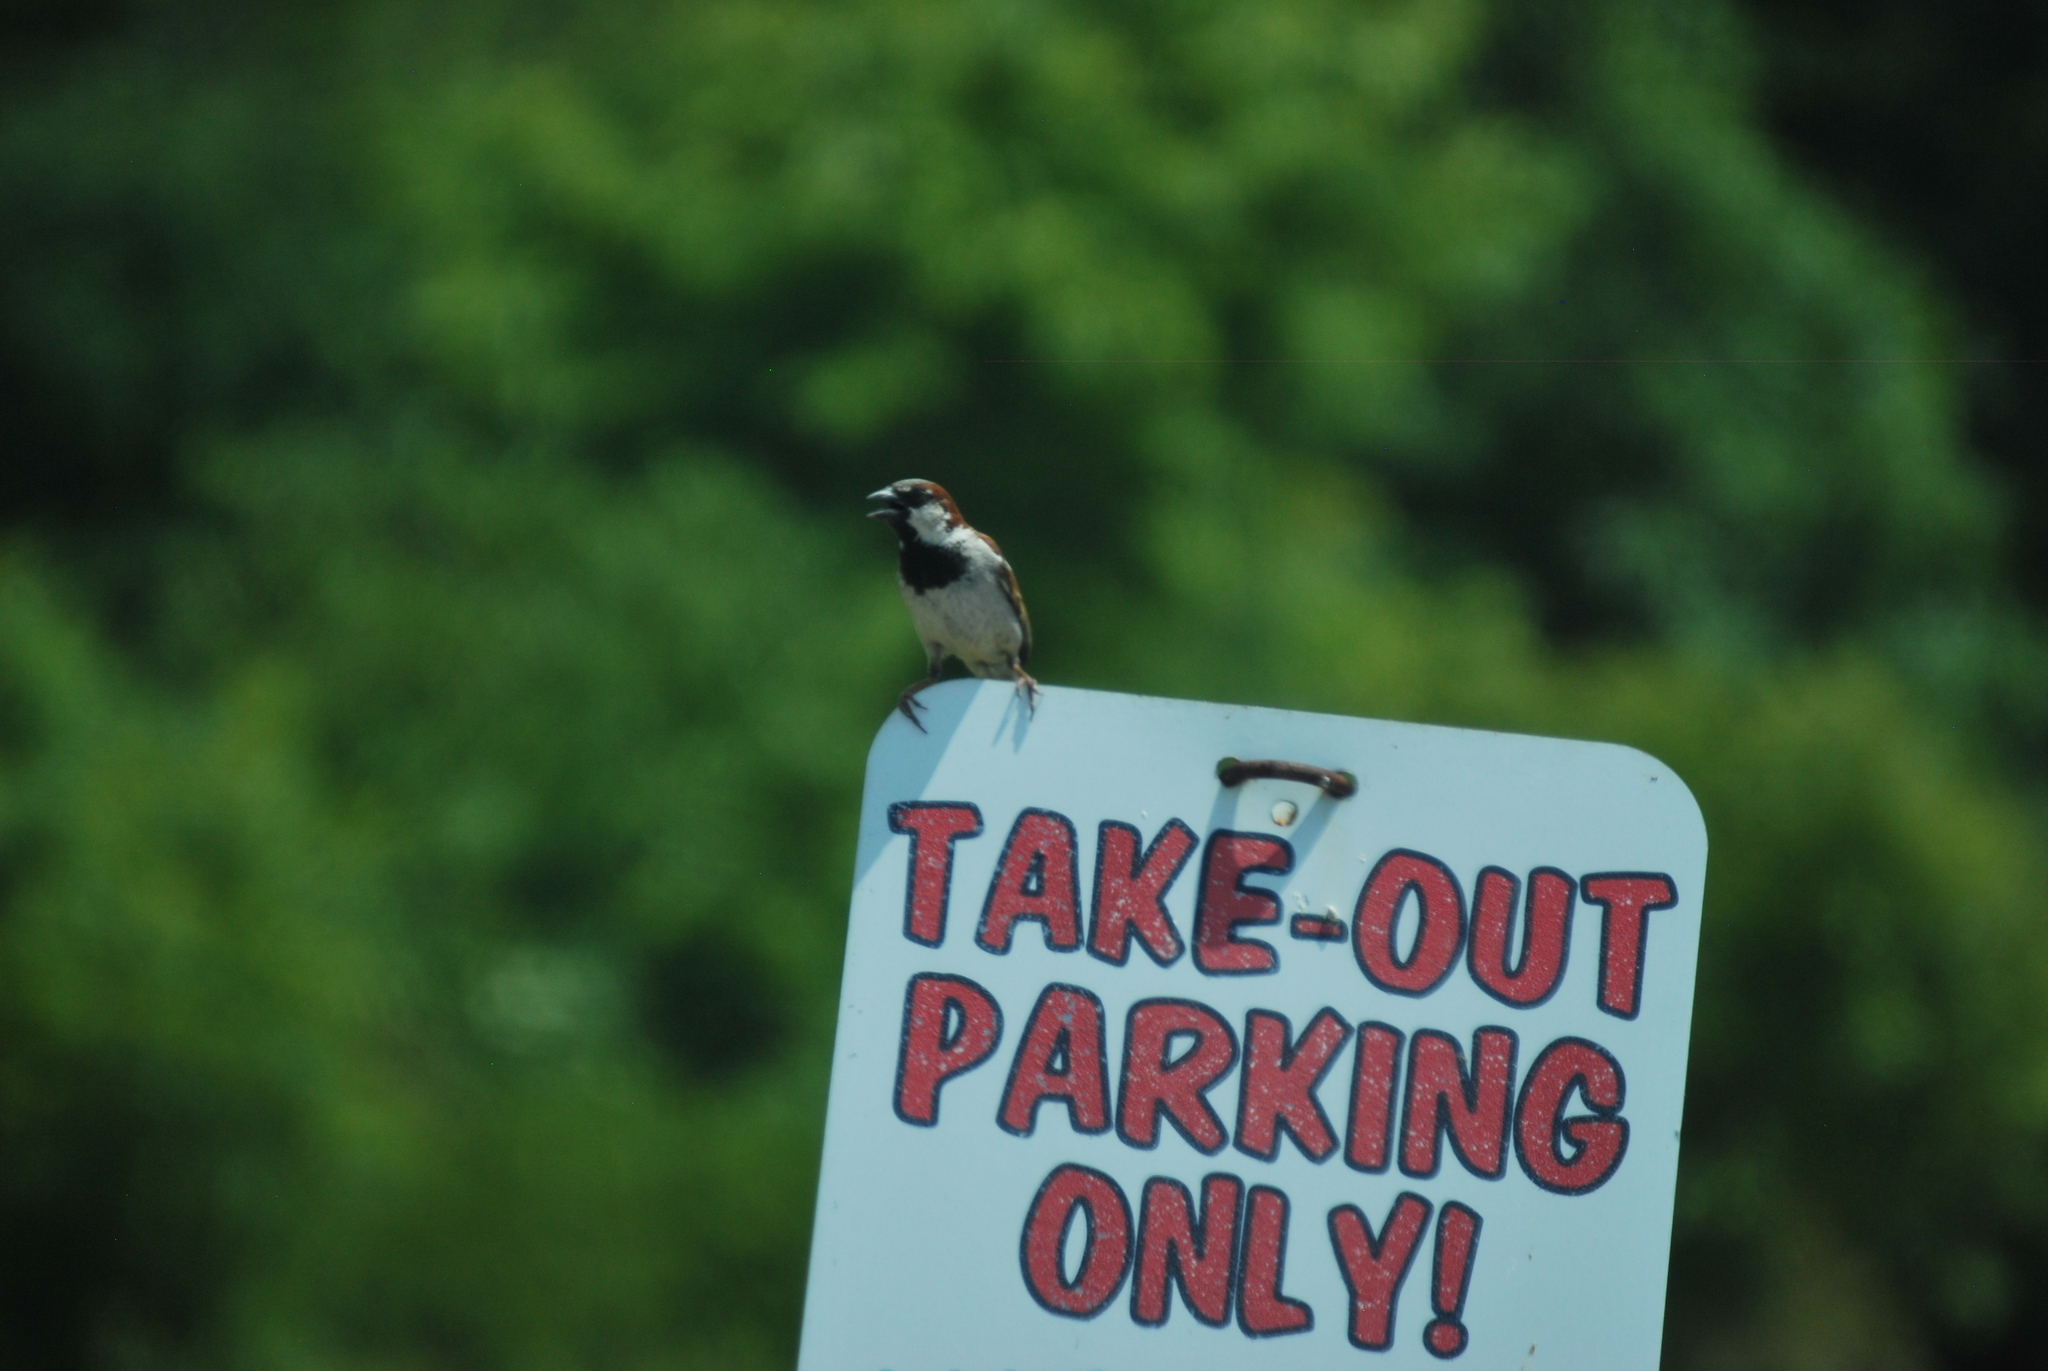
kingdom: Animalia
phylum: Chordata
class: Aves
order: Passeriformes
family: Passeridae
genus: Passer
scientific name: Passer domesticus
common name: House sparrow
